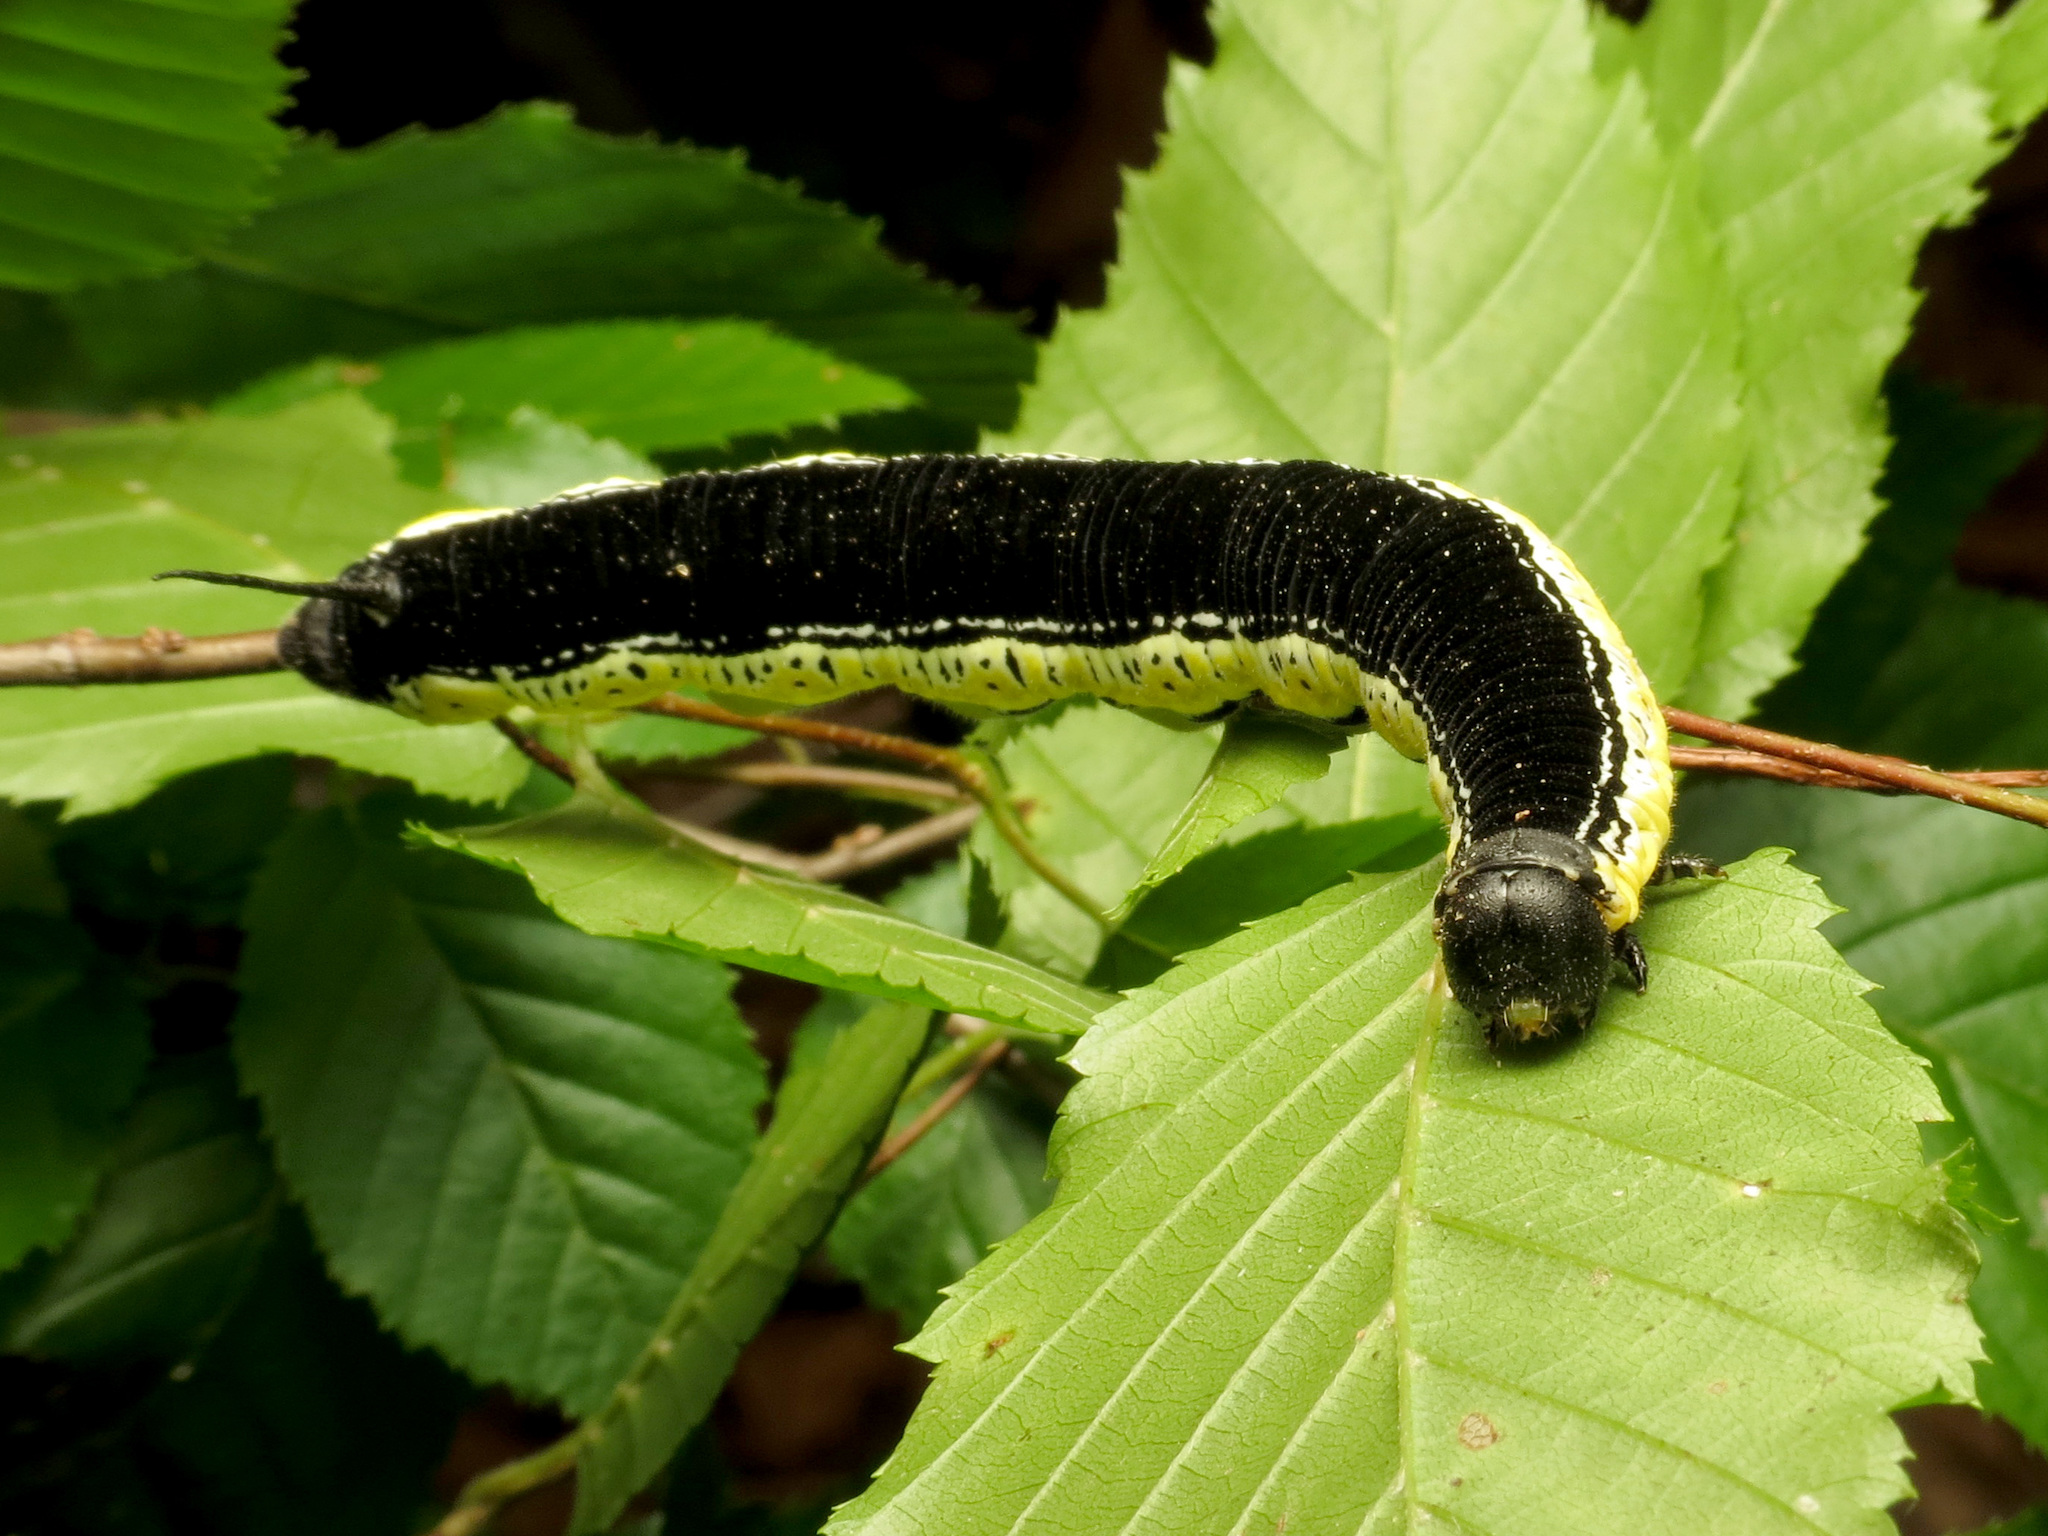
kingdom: Animalia
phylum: Arthropoda
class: Insecta
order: Lepidoptera
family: Sphingidae
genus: Ceratomia
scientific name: Ceratomia catalpae
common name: Catalpa hornworm
